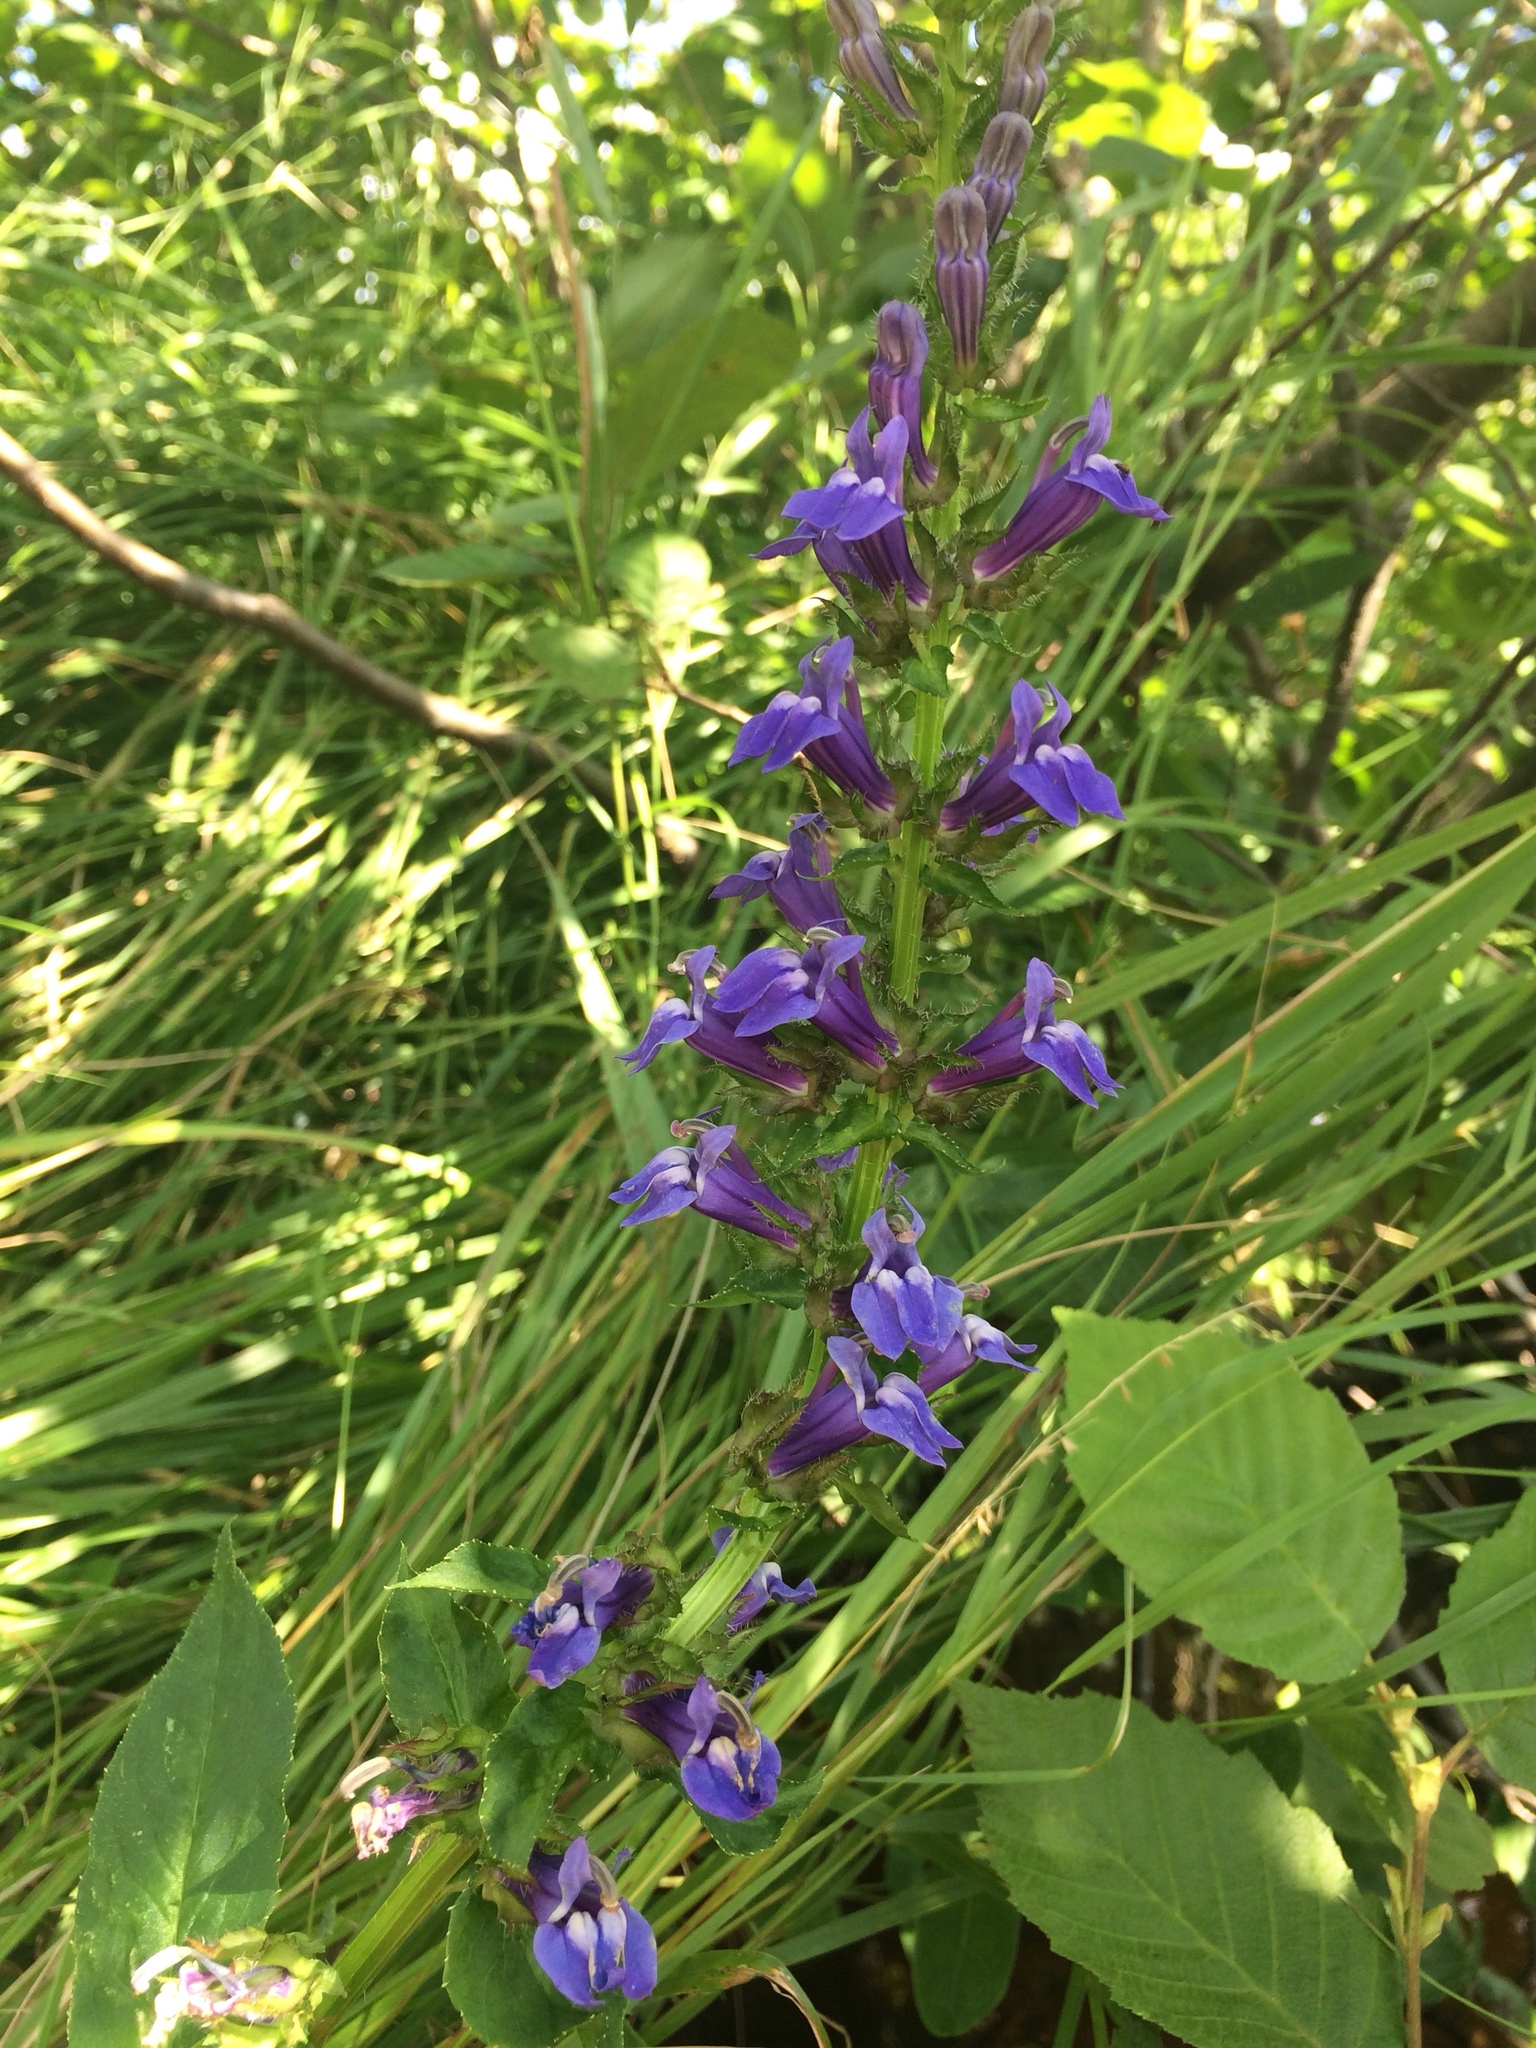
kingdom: Plantae
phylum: Tracheophyta
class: Magnoliopsida
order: Asterales
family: Campanulaceae
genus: Lobelia
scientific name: Lobelia siphilitica
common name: Great lobelia
